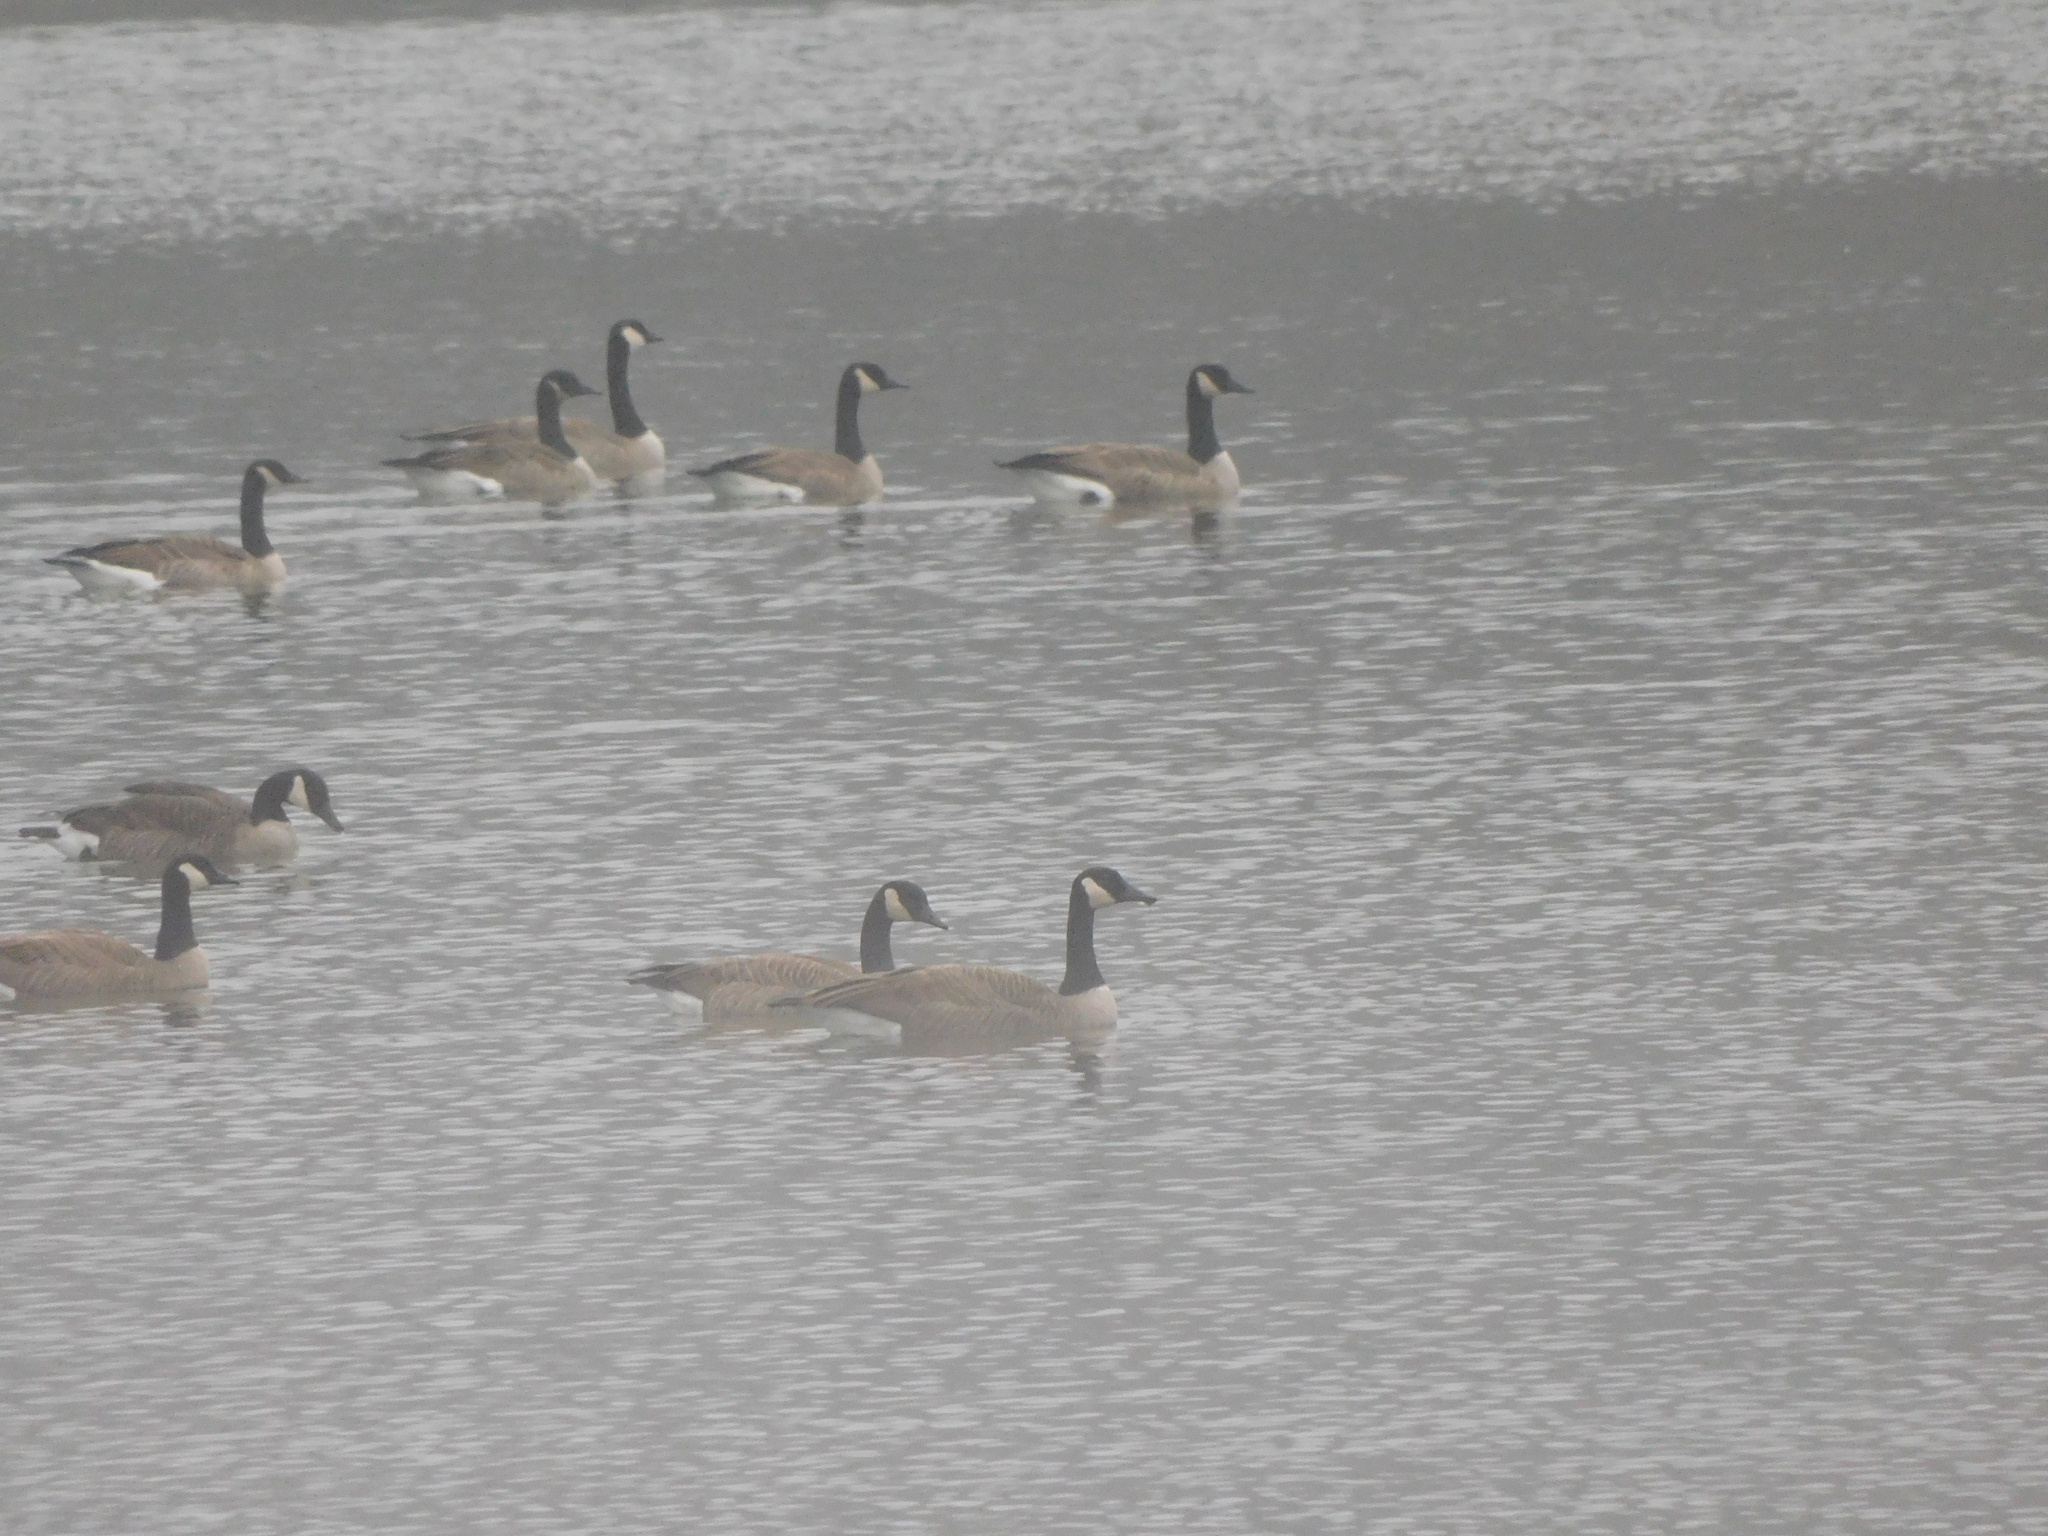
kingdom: Animalia
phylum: Chordata
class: Aves
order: Anseriformes
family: Anatidae
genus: Branta
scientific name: Branta canadensis
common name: Canada goose
